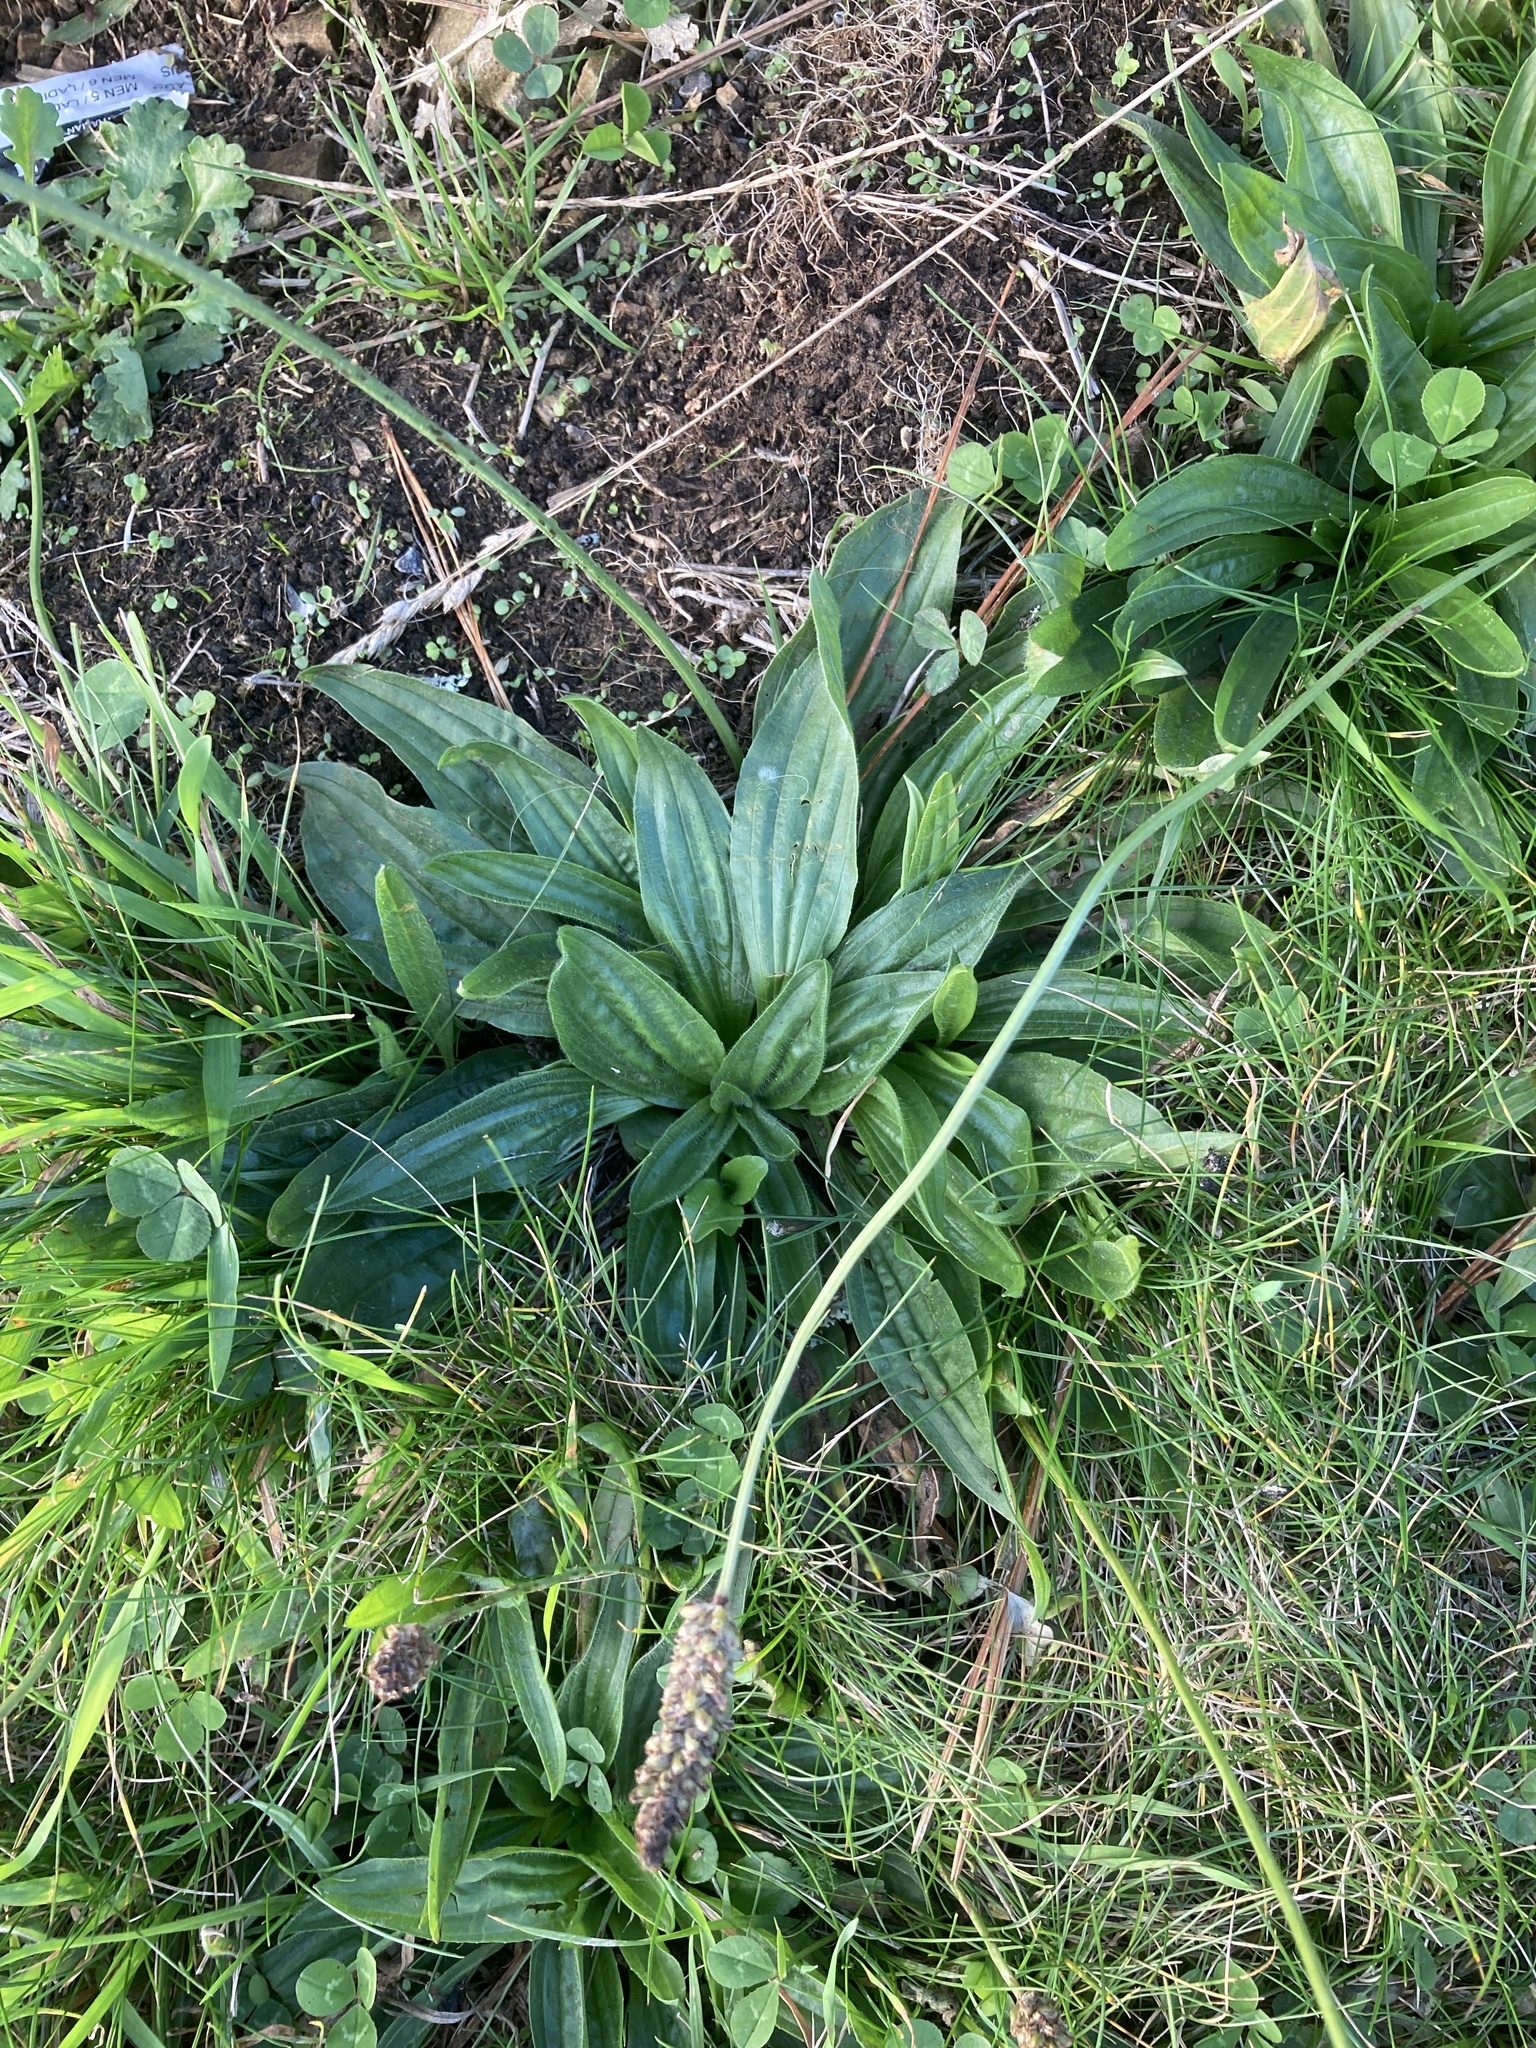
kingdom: Plantae
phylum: Tracheophyta
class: Magnoliopsida
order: Lamiales
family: Plantaginaceae
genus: Plantago
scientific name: Plantago lanceolata
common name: Ribwort plantain
